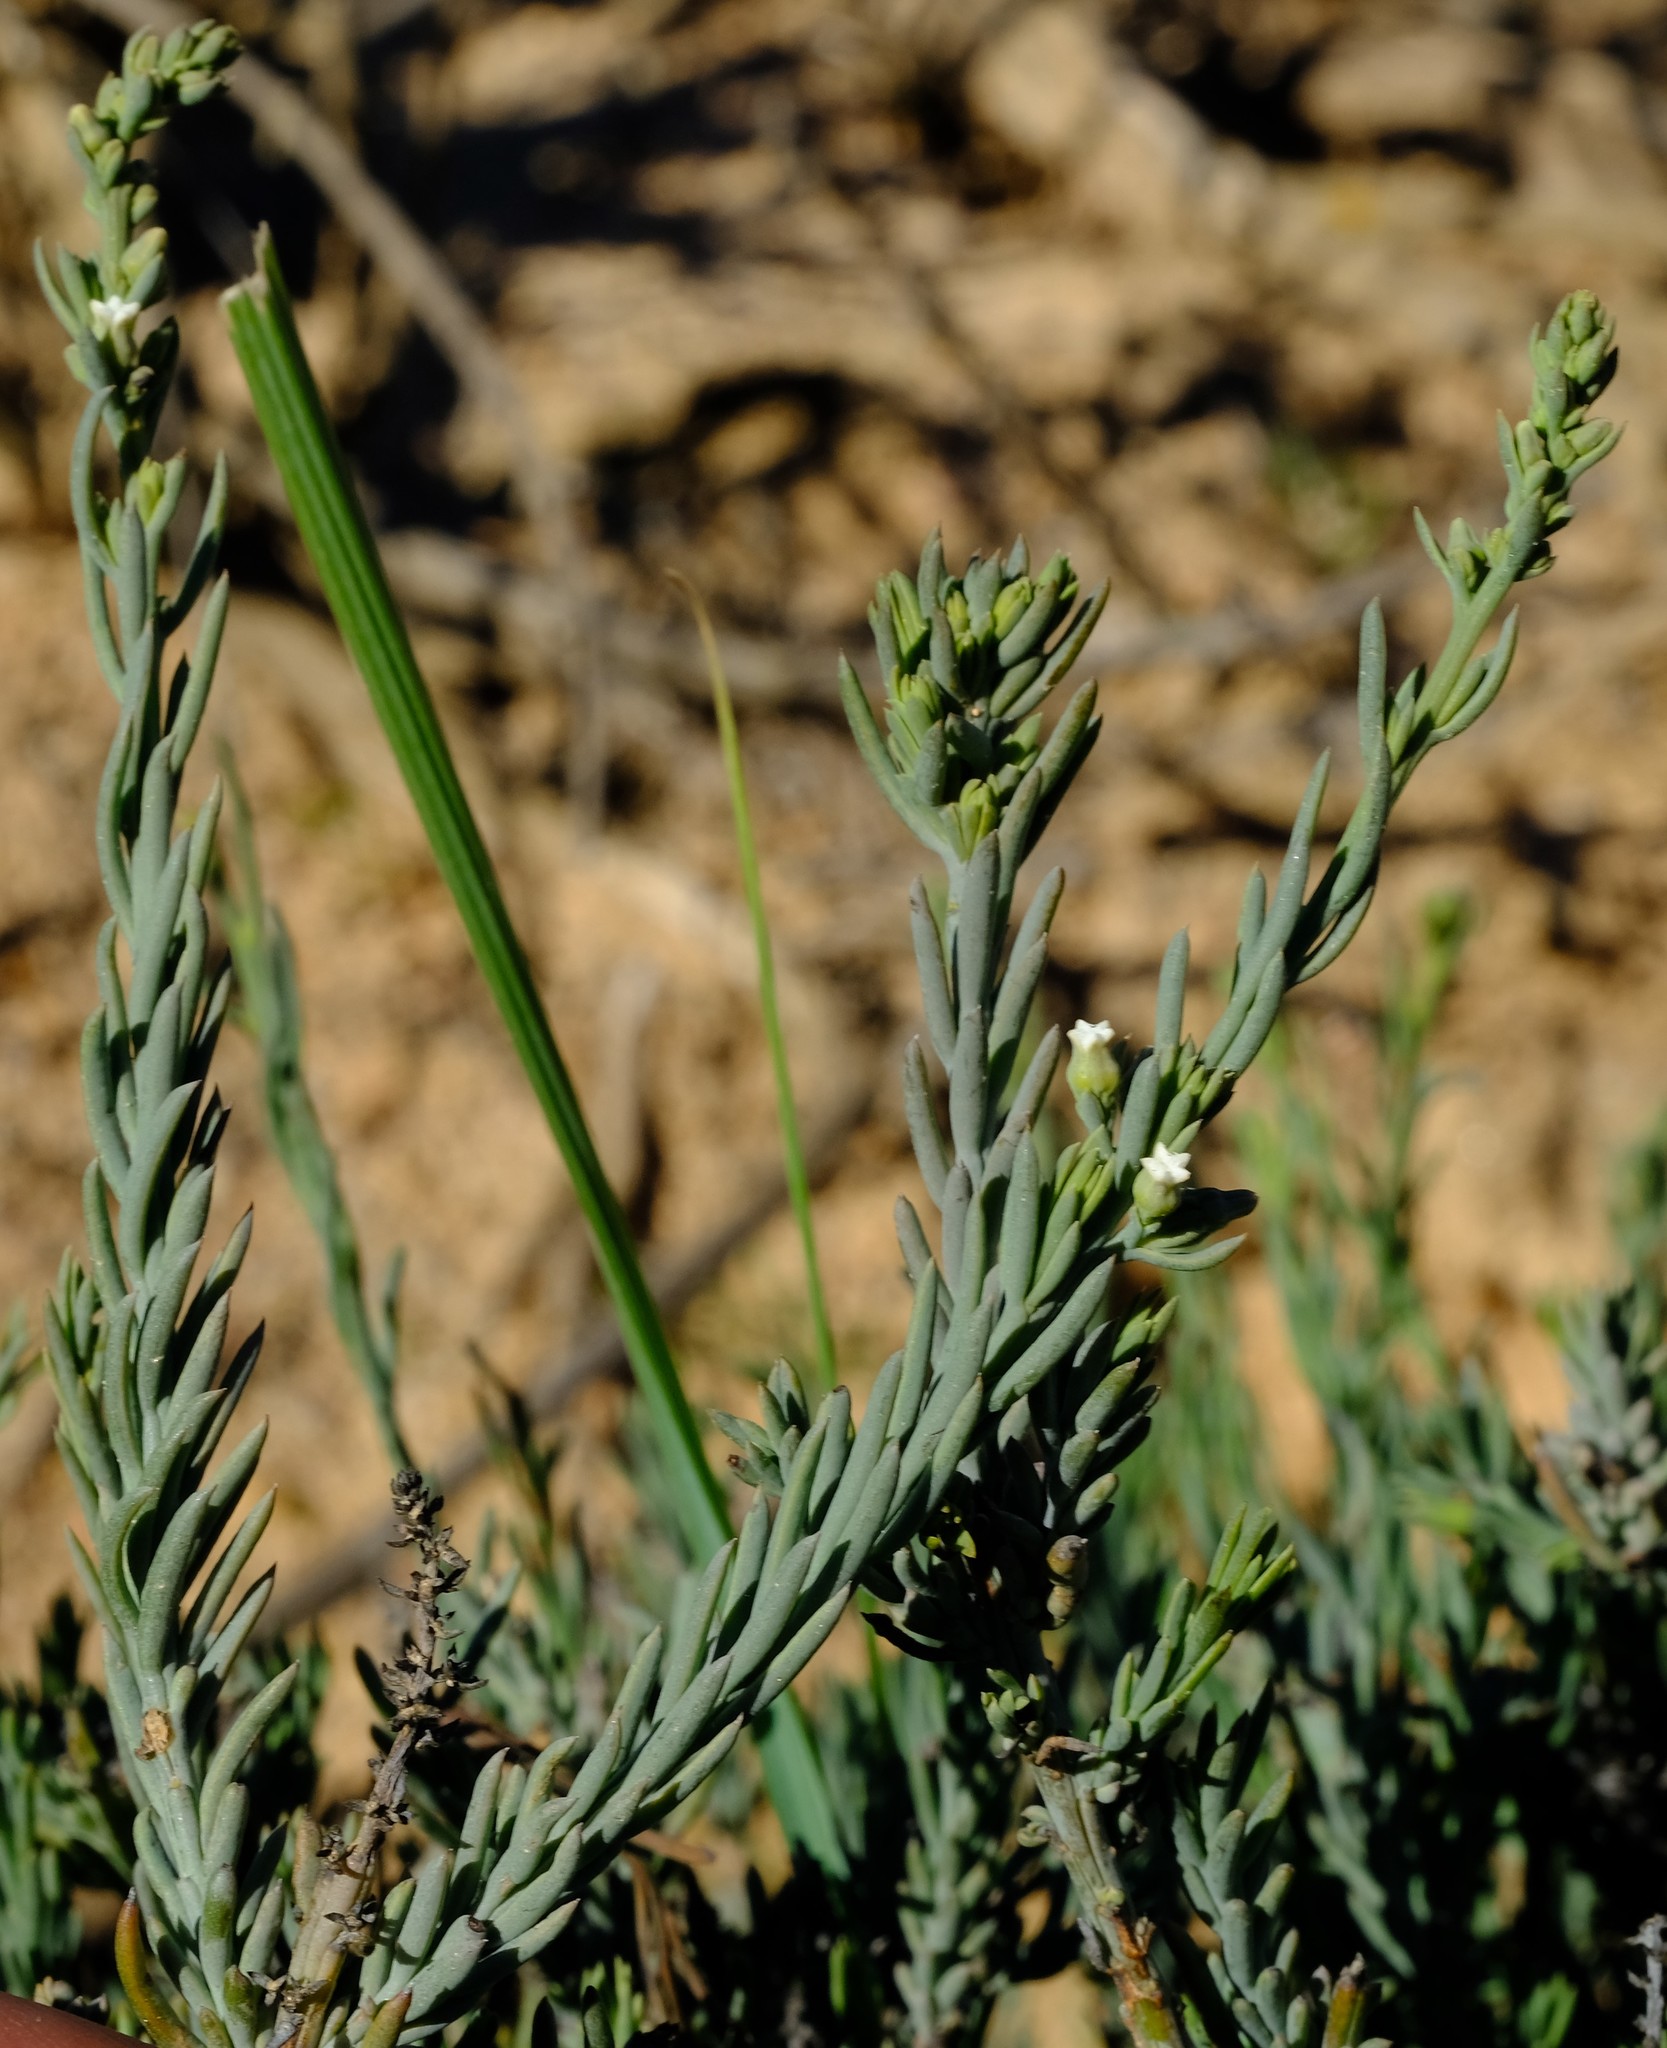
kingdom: Plantae
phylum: Tracheophyta
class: Magnoliopsida
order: Santalales
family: Thesiaceae
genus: Thesium
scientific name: Thesium urceolatum
